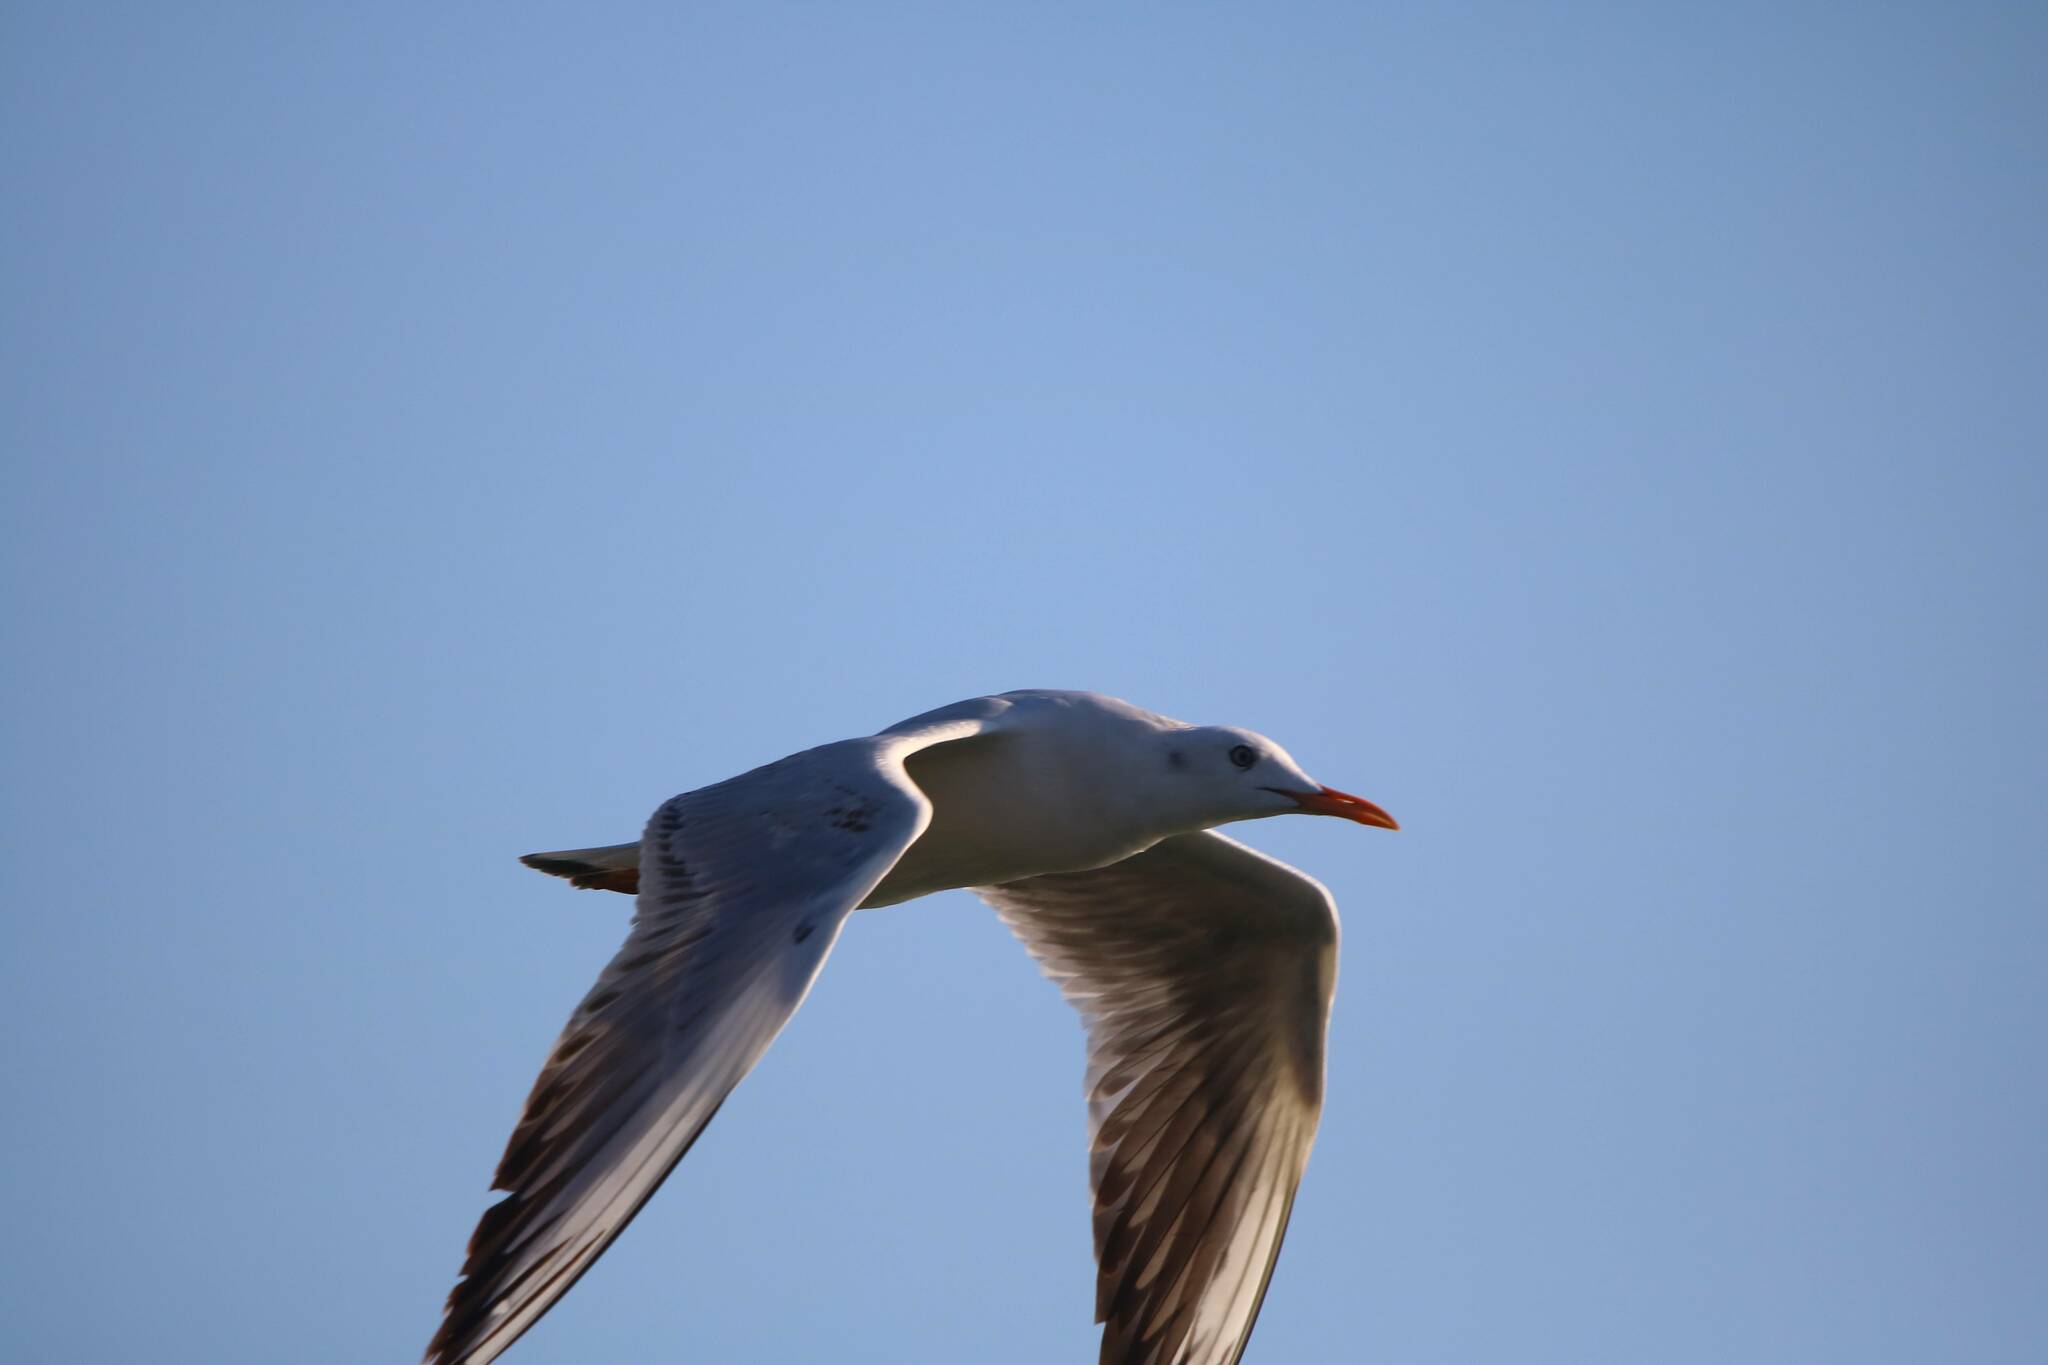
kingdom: Animalia
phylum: Chordata
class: Aves
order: Charadriiformes
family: Laridae
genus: Chroicocephalus
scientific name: Chroicocephalus genei
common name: Slender-billed gull
